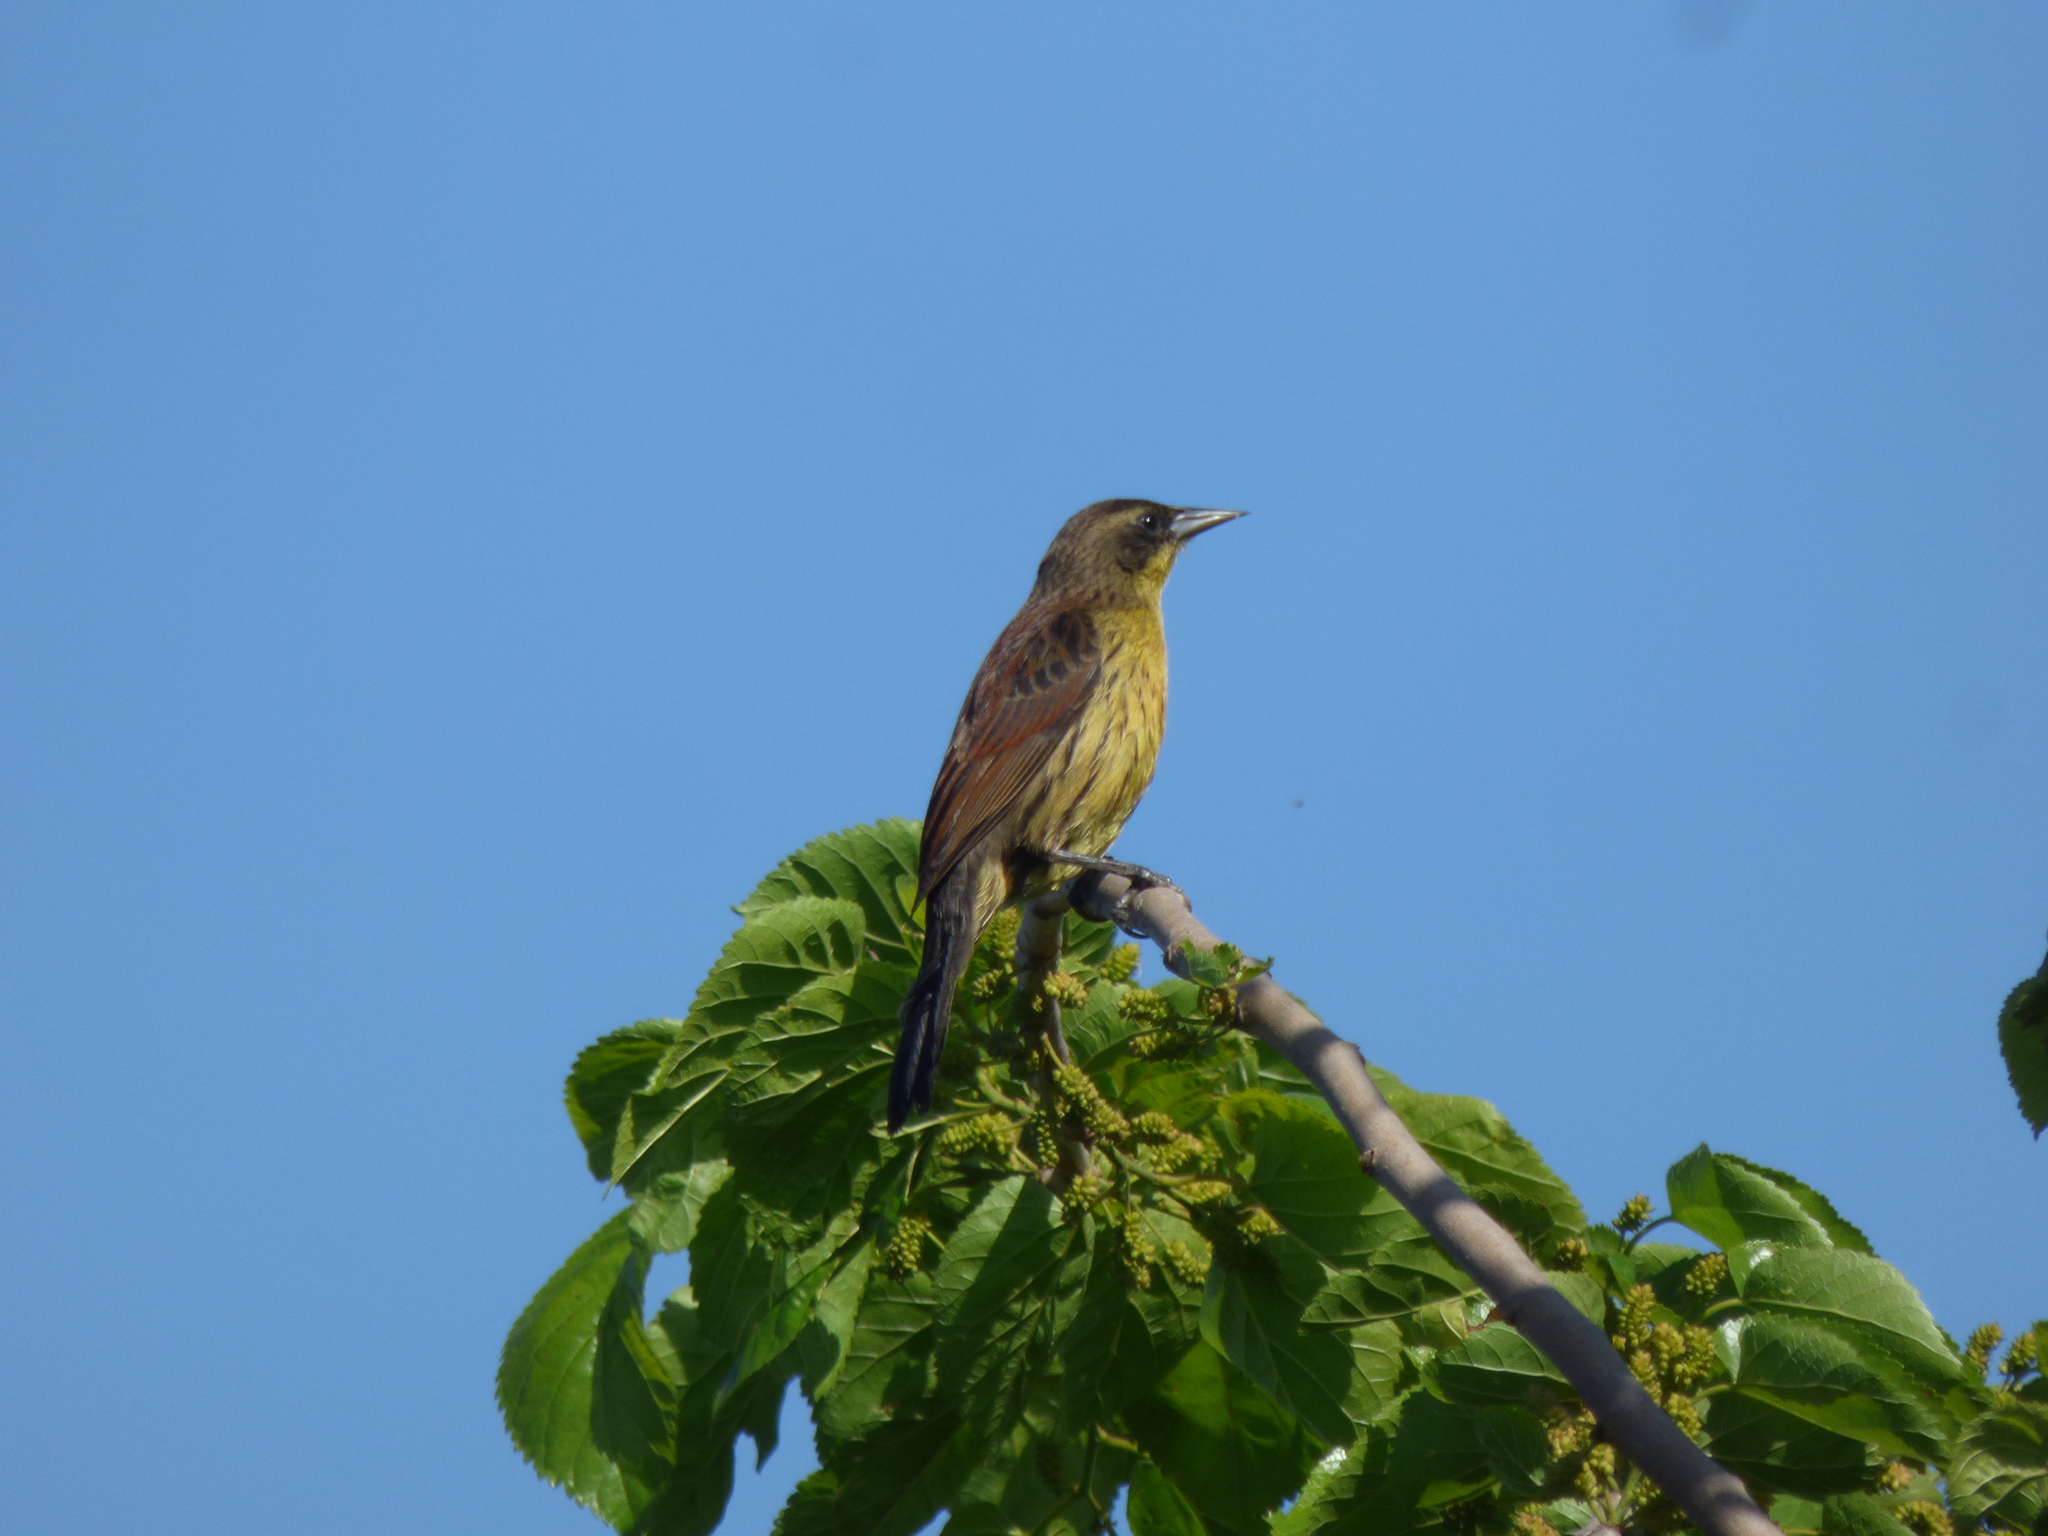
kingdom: Animalia
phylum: Chordata
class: Aves
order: Passeriformes
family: Icteridae
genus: Agelasticus
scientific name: Agelasticus cyanopus
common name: Unicolored blackbird
